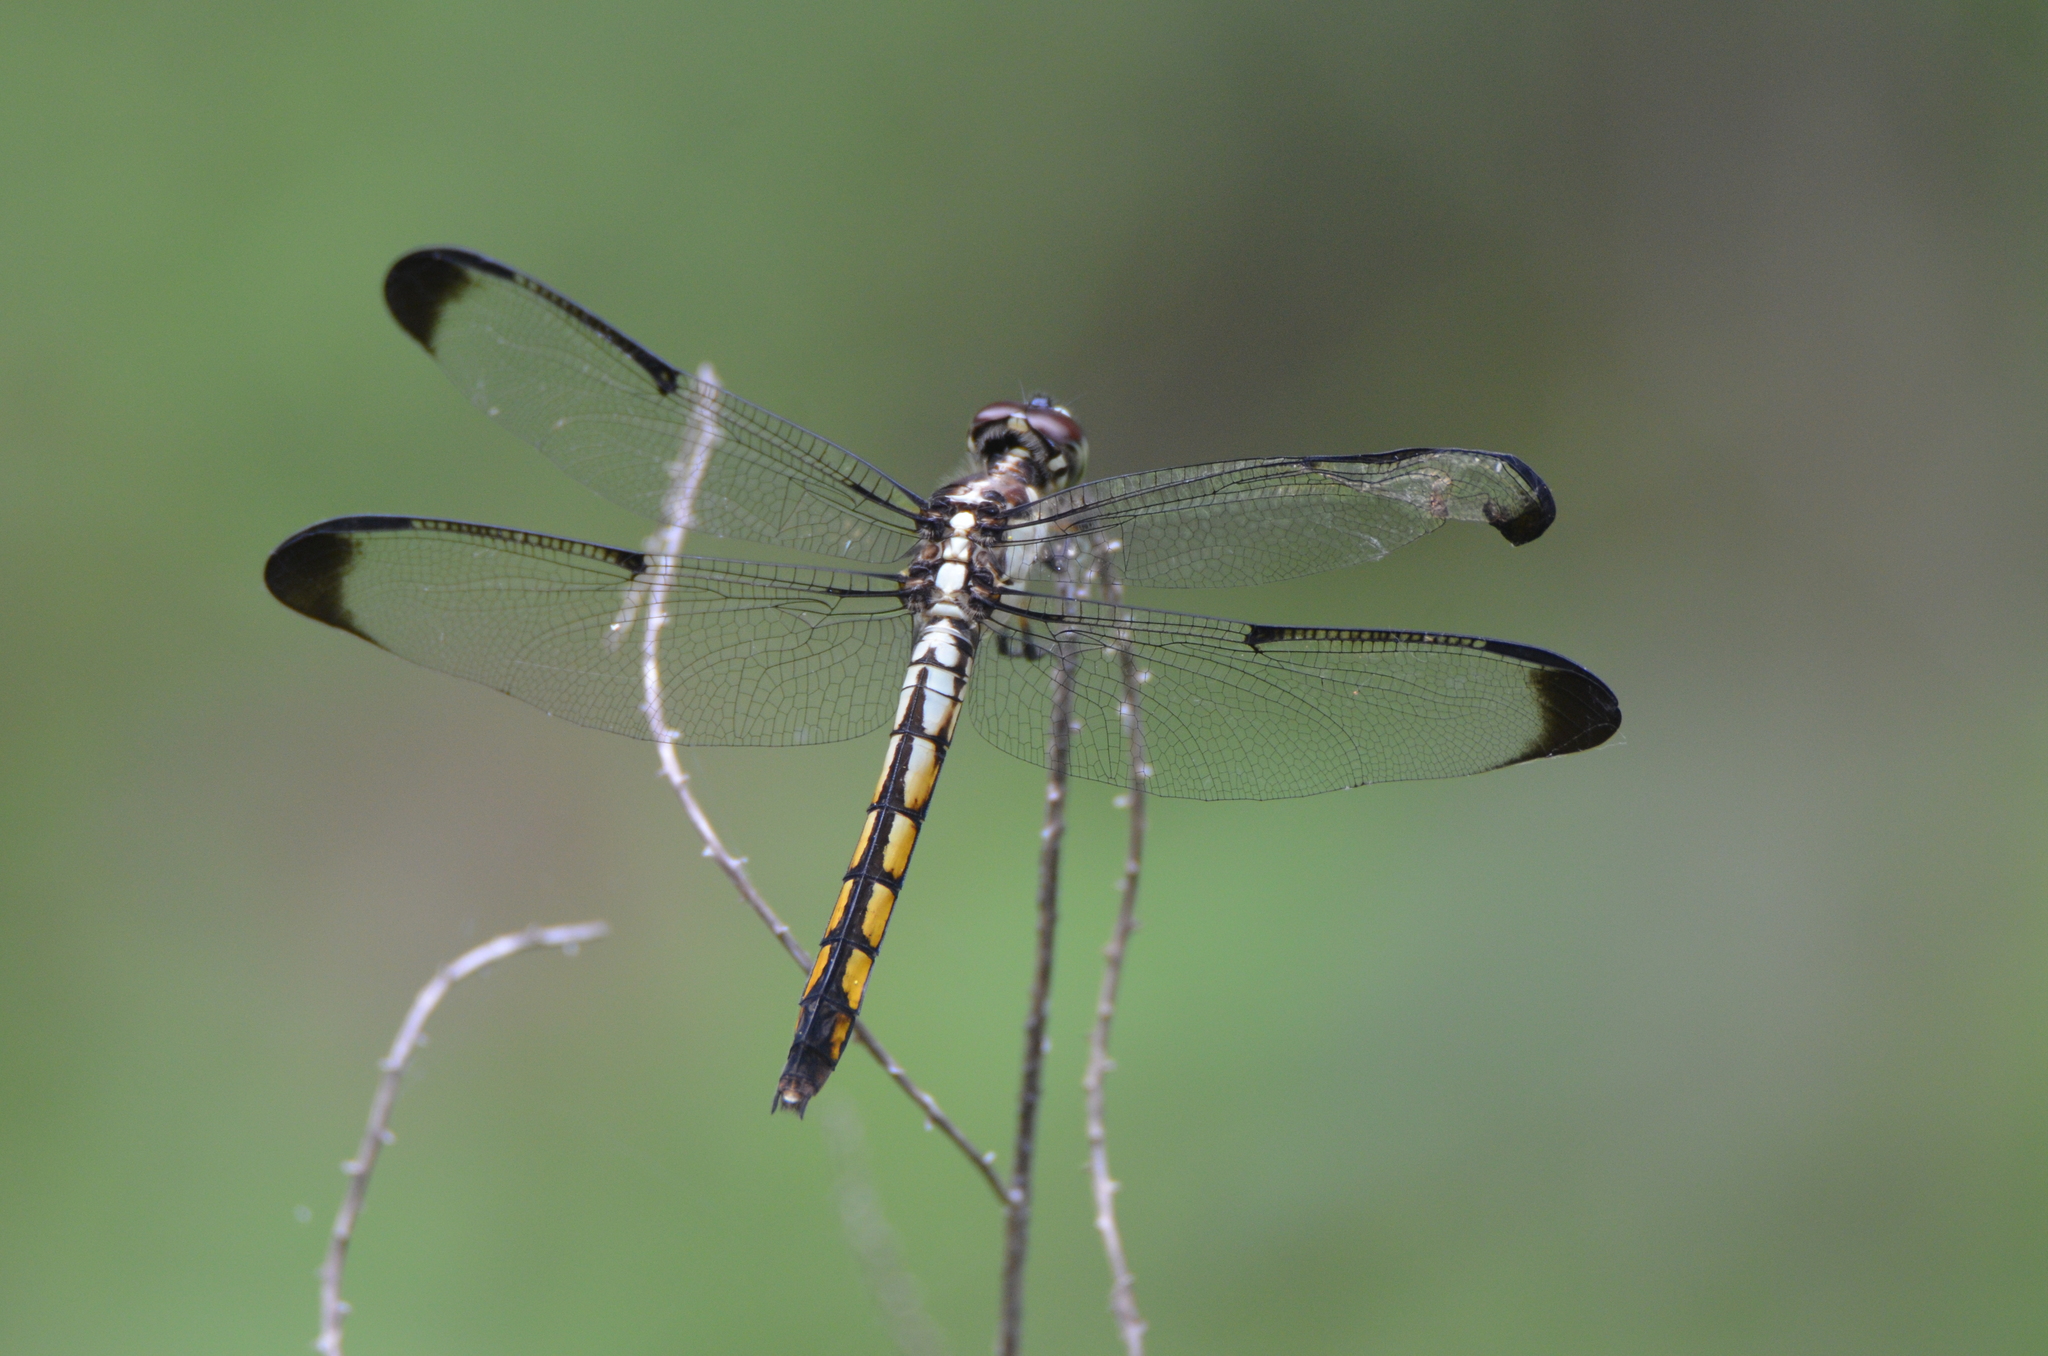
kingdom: Animalia
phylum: Arthropoda
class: Insecta
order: Odonata
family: Libellulidae
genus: Libellula
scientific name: Libellula vibrans
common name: Great blue skimmer
